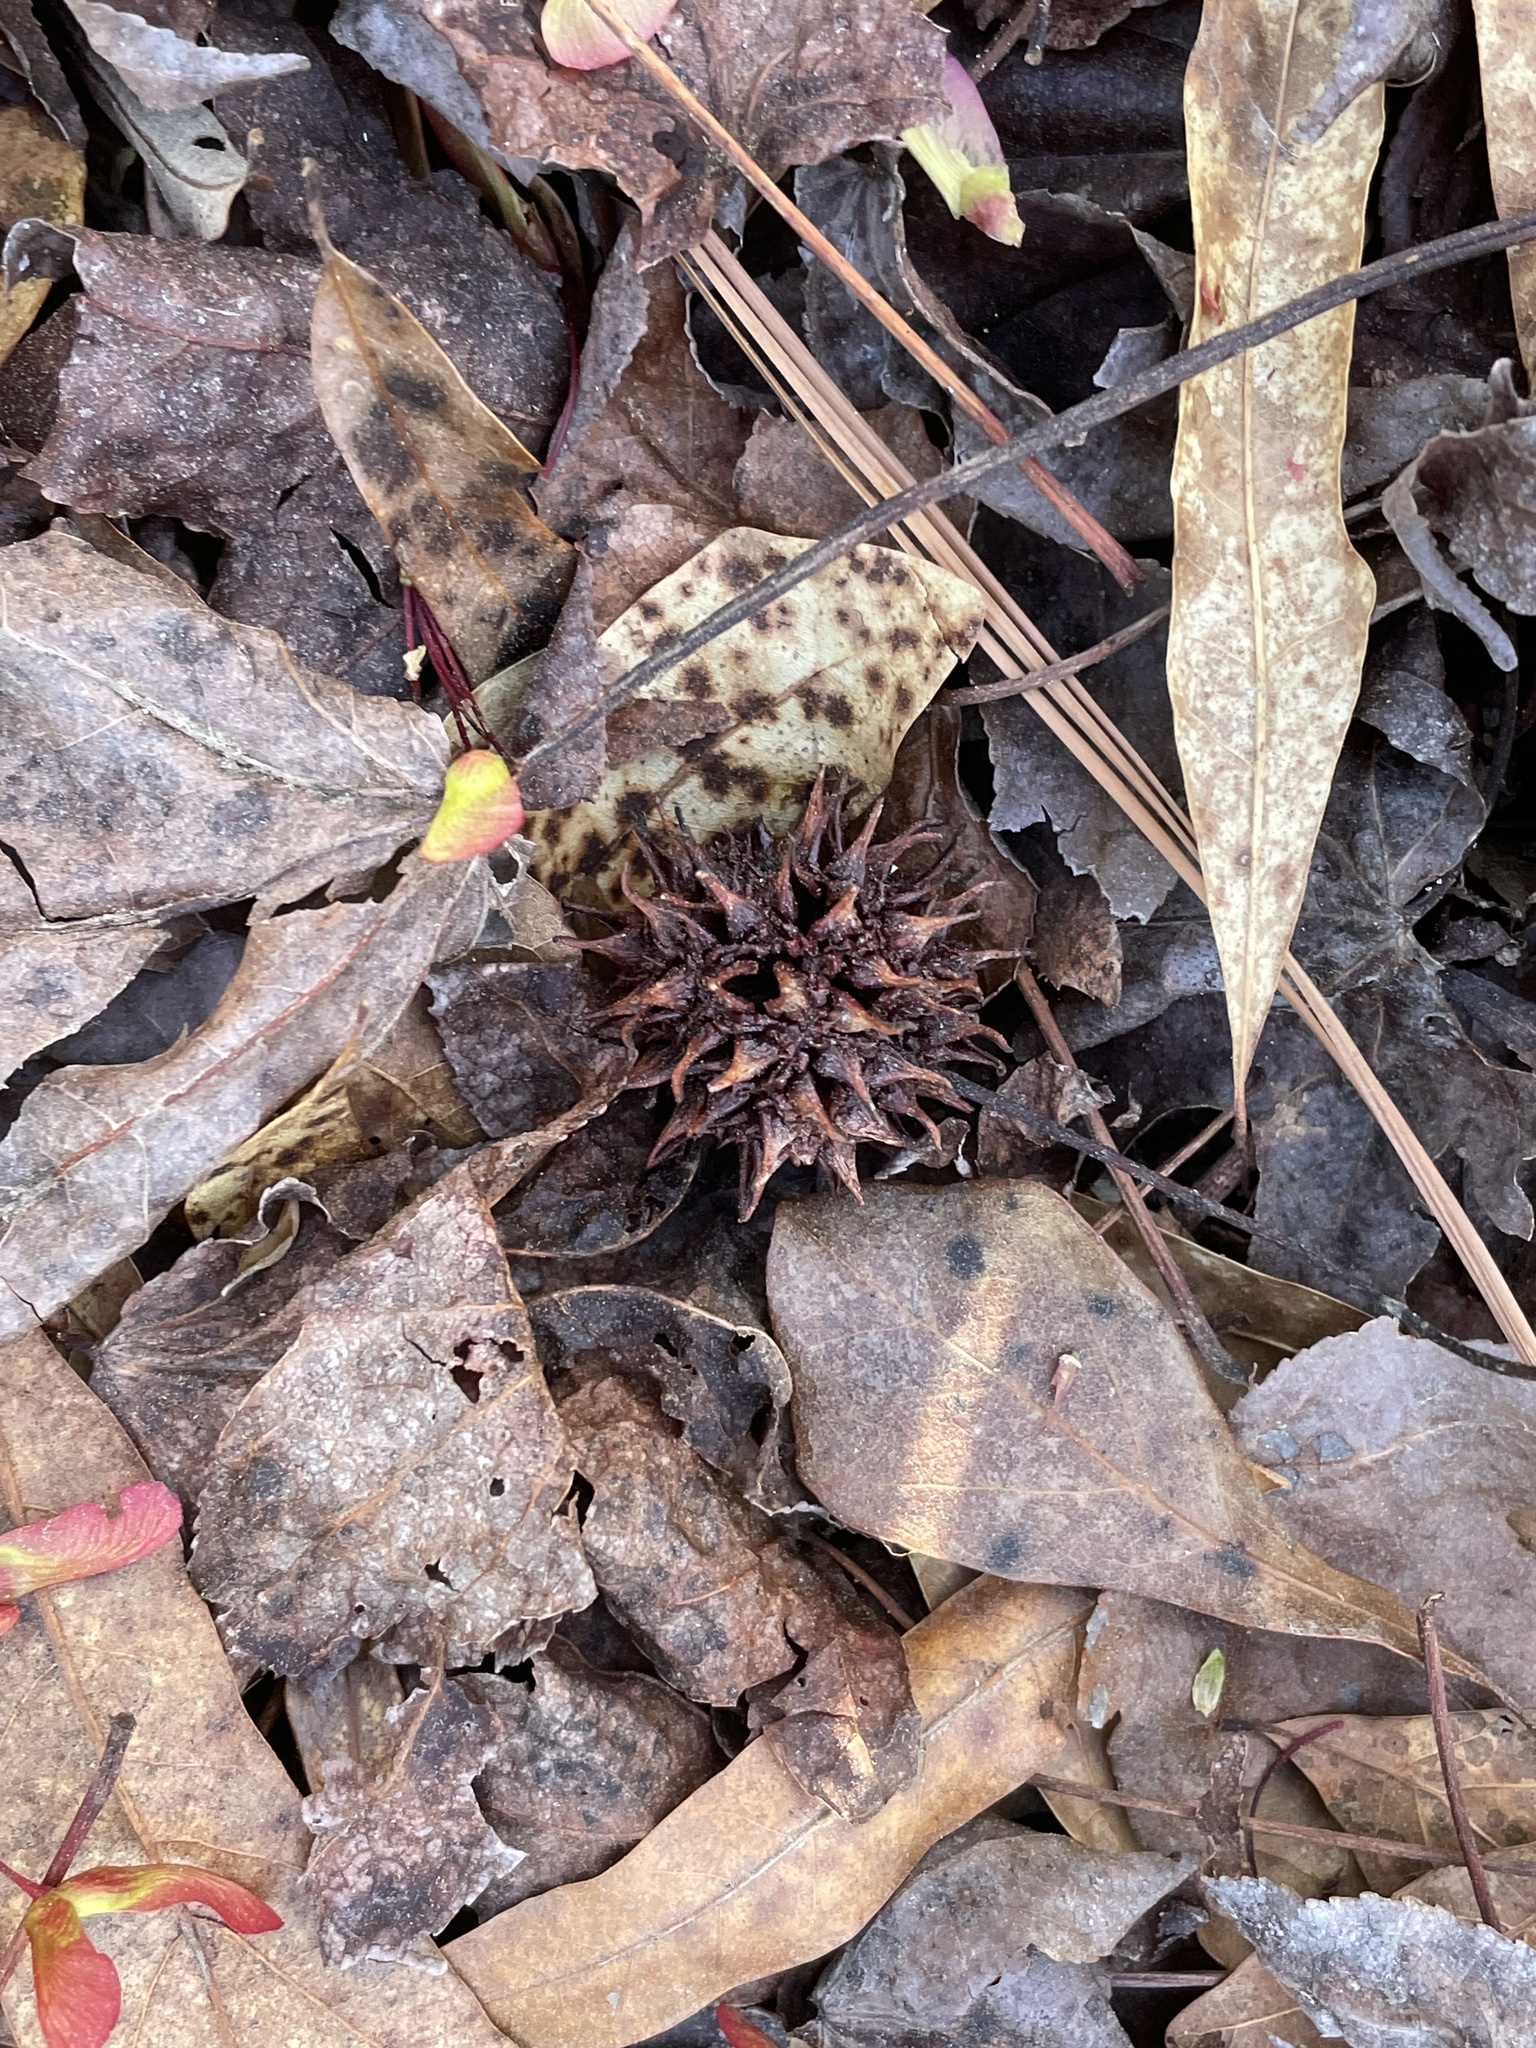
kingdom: Plantae
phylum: Tracheophyta
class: Magnoliopsida
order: Saxifragales
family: Altingiaceae
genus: Liquidambar
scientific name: Liquidambar styraciflua
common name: Sweet gum
